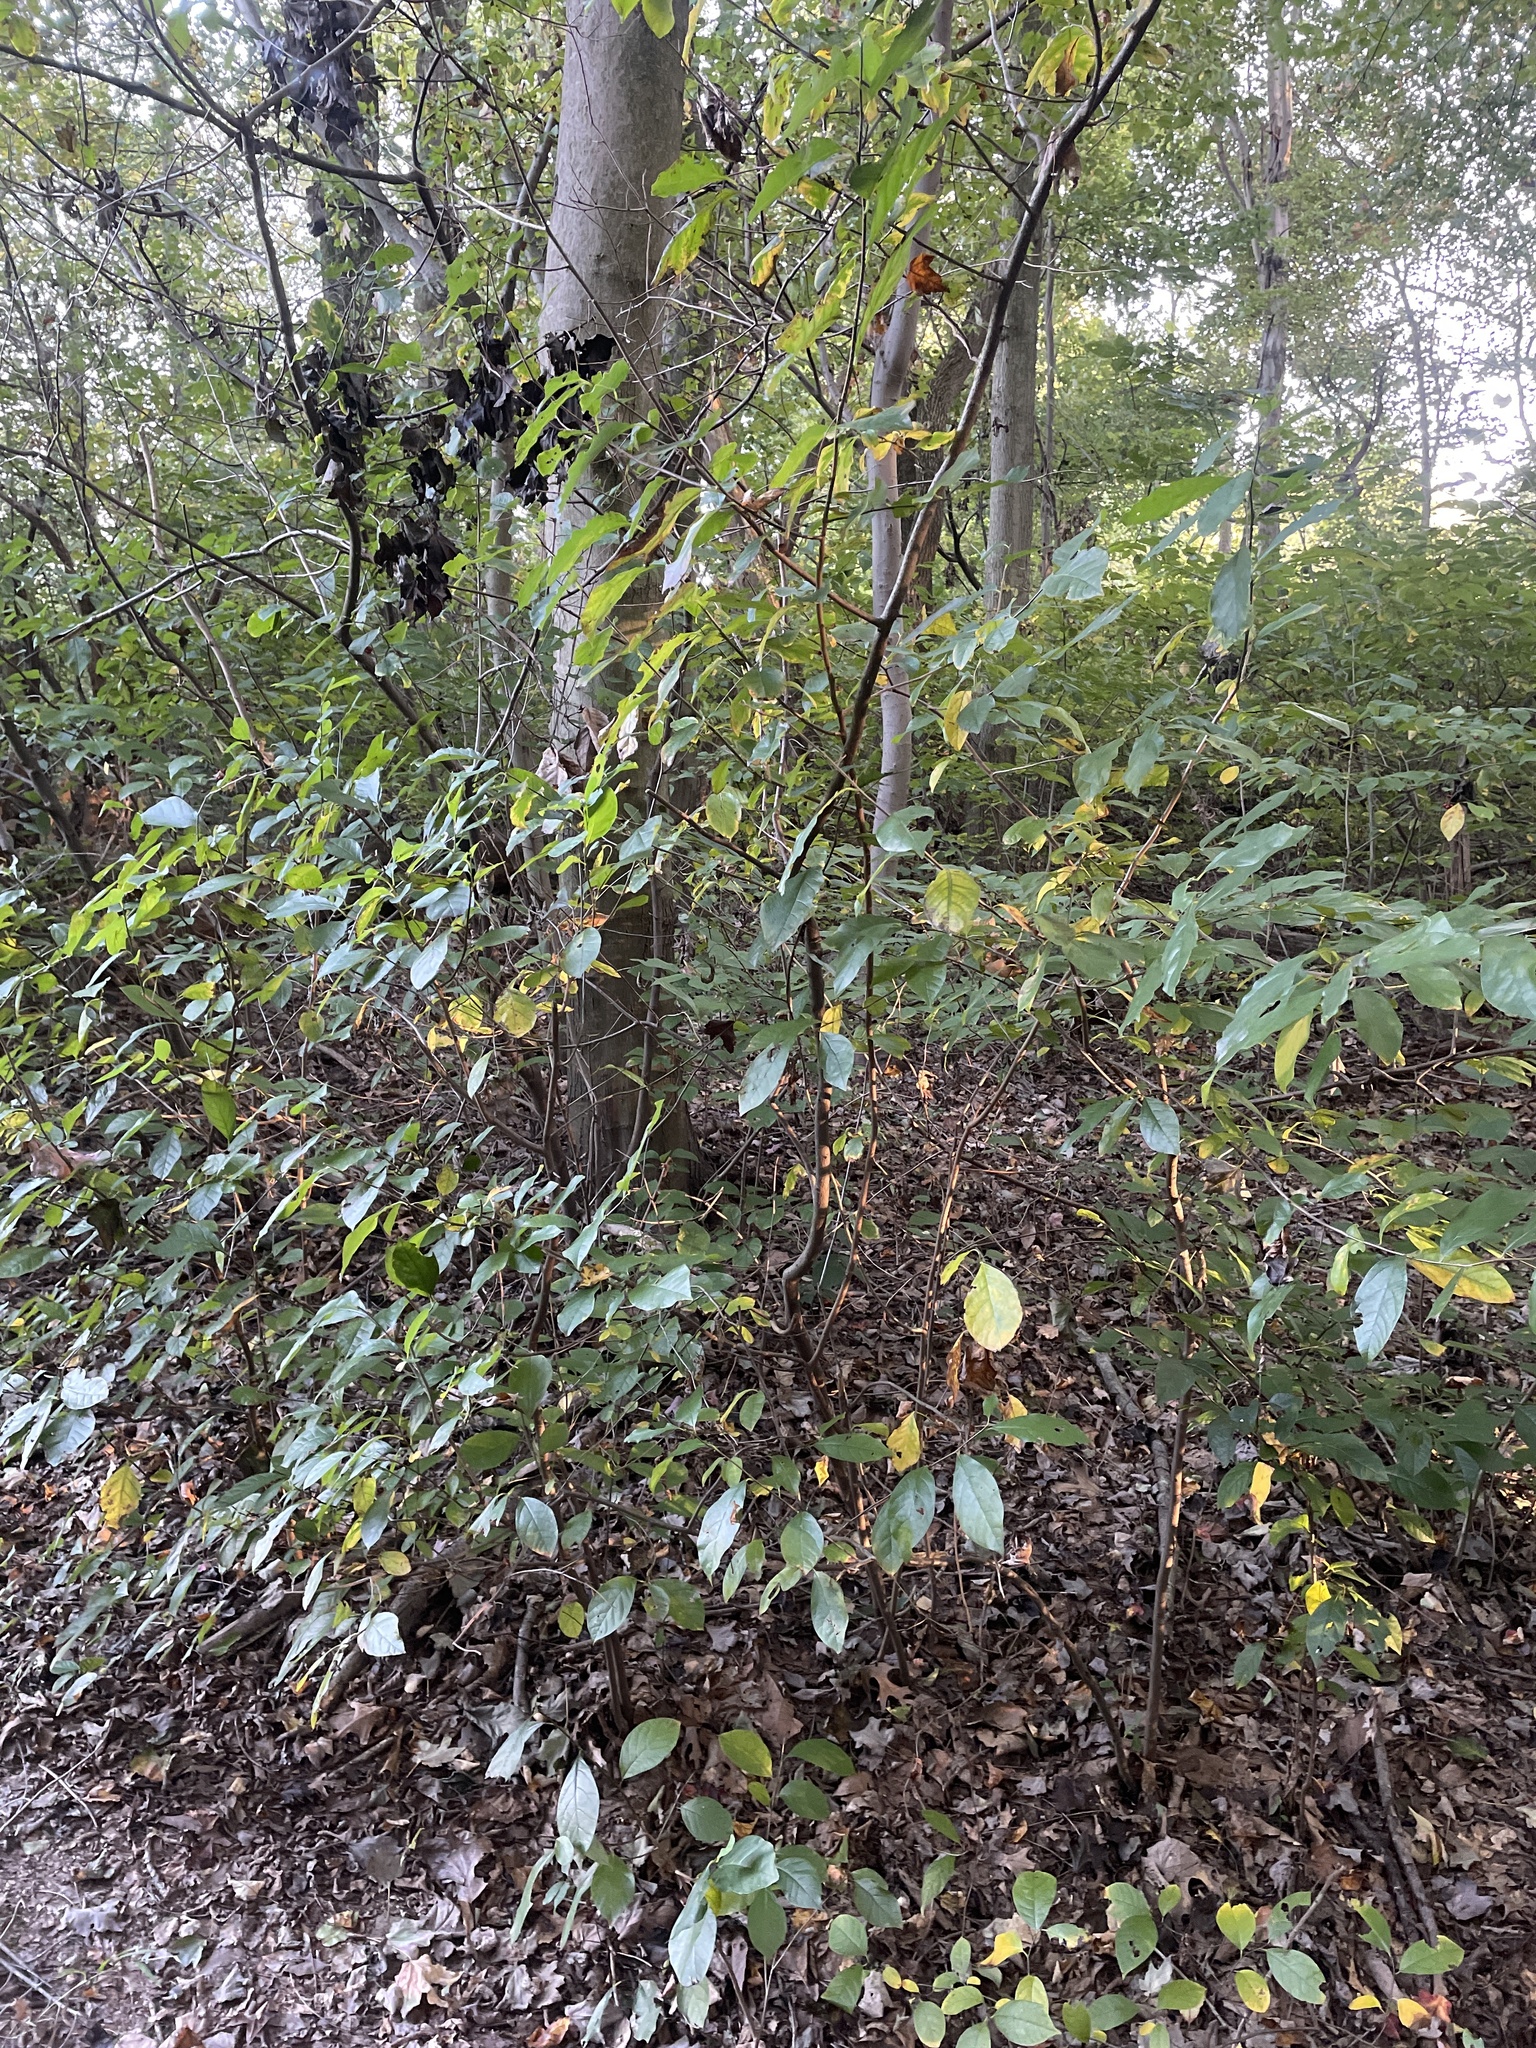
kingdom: Plantae
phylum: Tracheophyta
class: Magnoliopsida
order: Laurales
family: Lauraceae
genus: Lindera
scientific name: Lindera benzoin
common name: Spicebush
